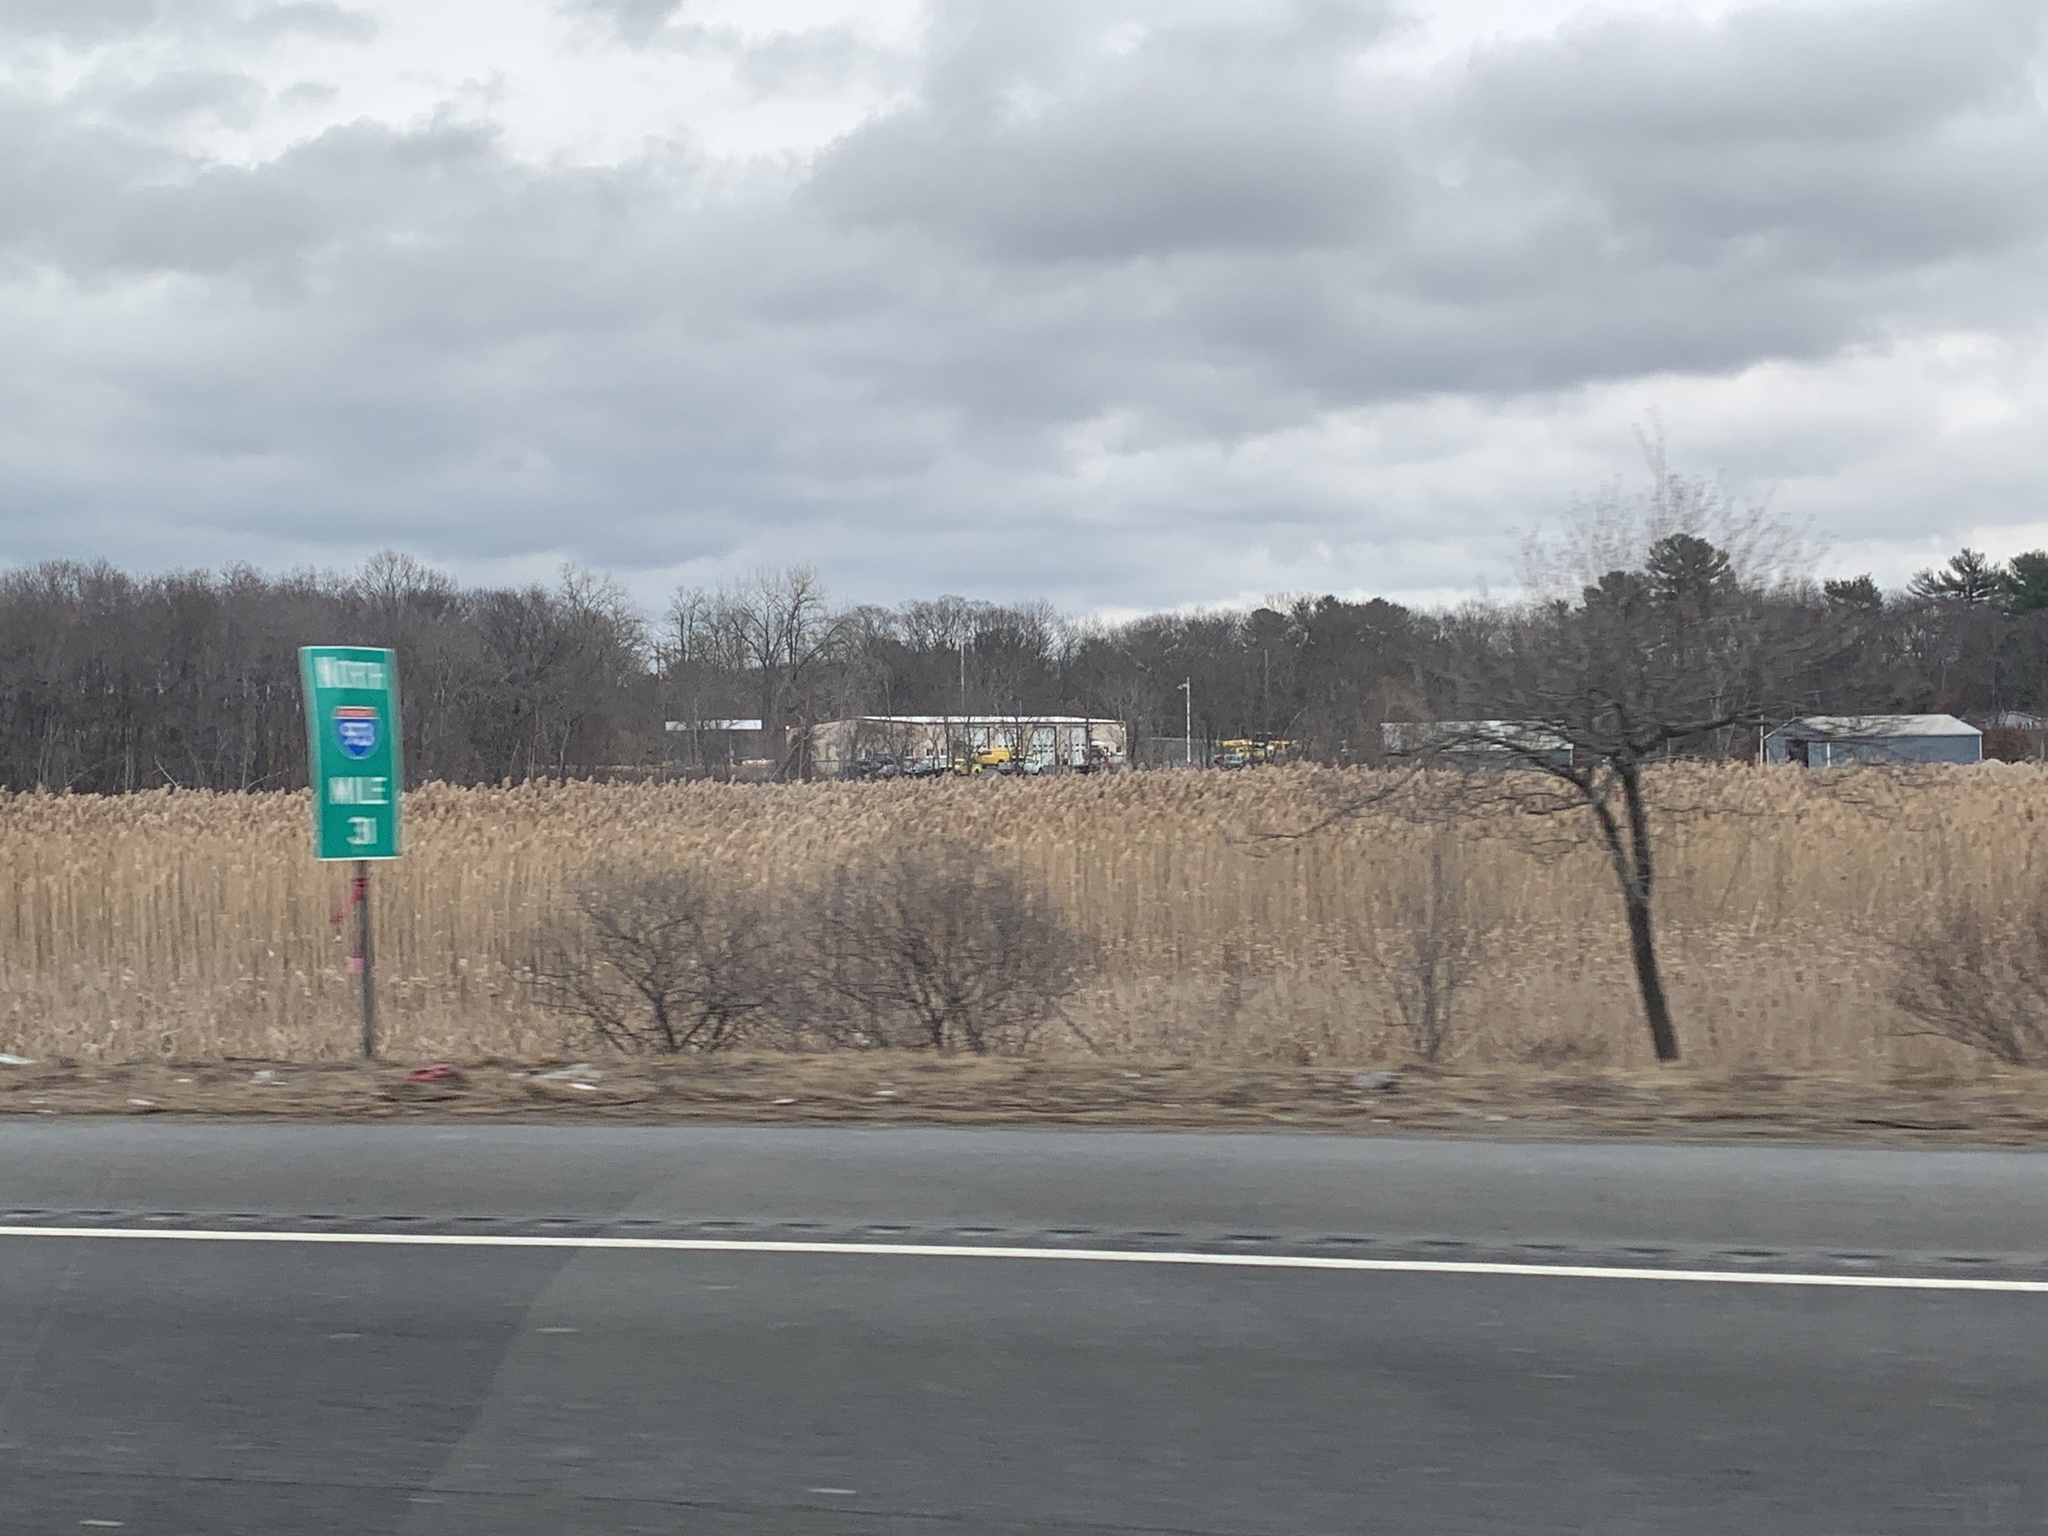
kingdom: Plantae
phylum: Tracheophyta
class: Liliopsida
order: Poales
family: Poaceae
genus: Phragmites
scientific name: Phragmites australis
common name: Common reed
